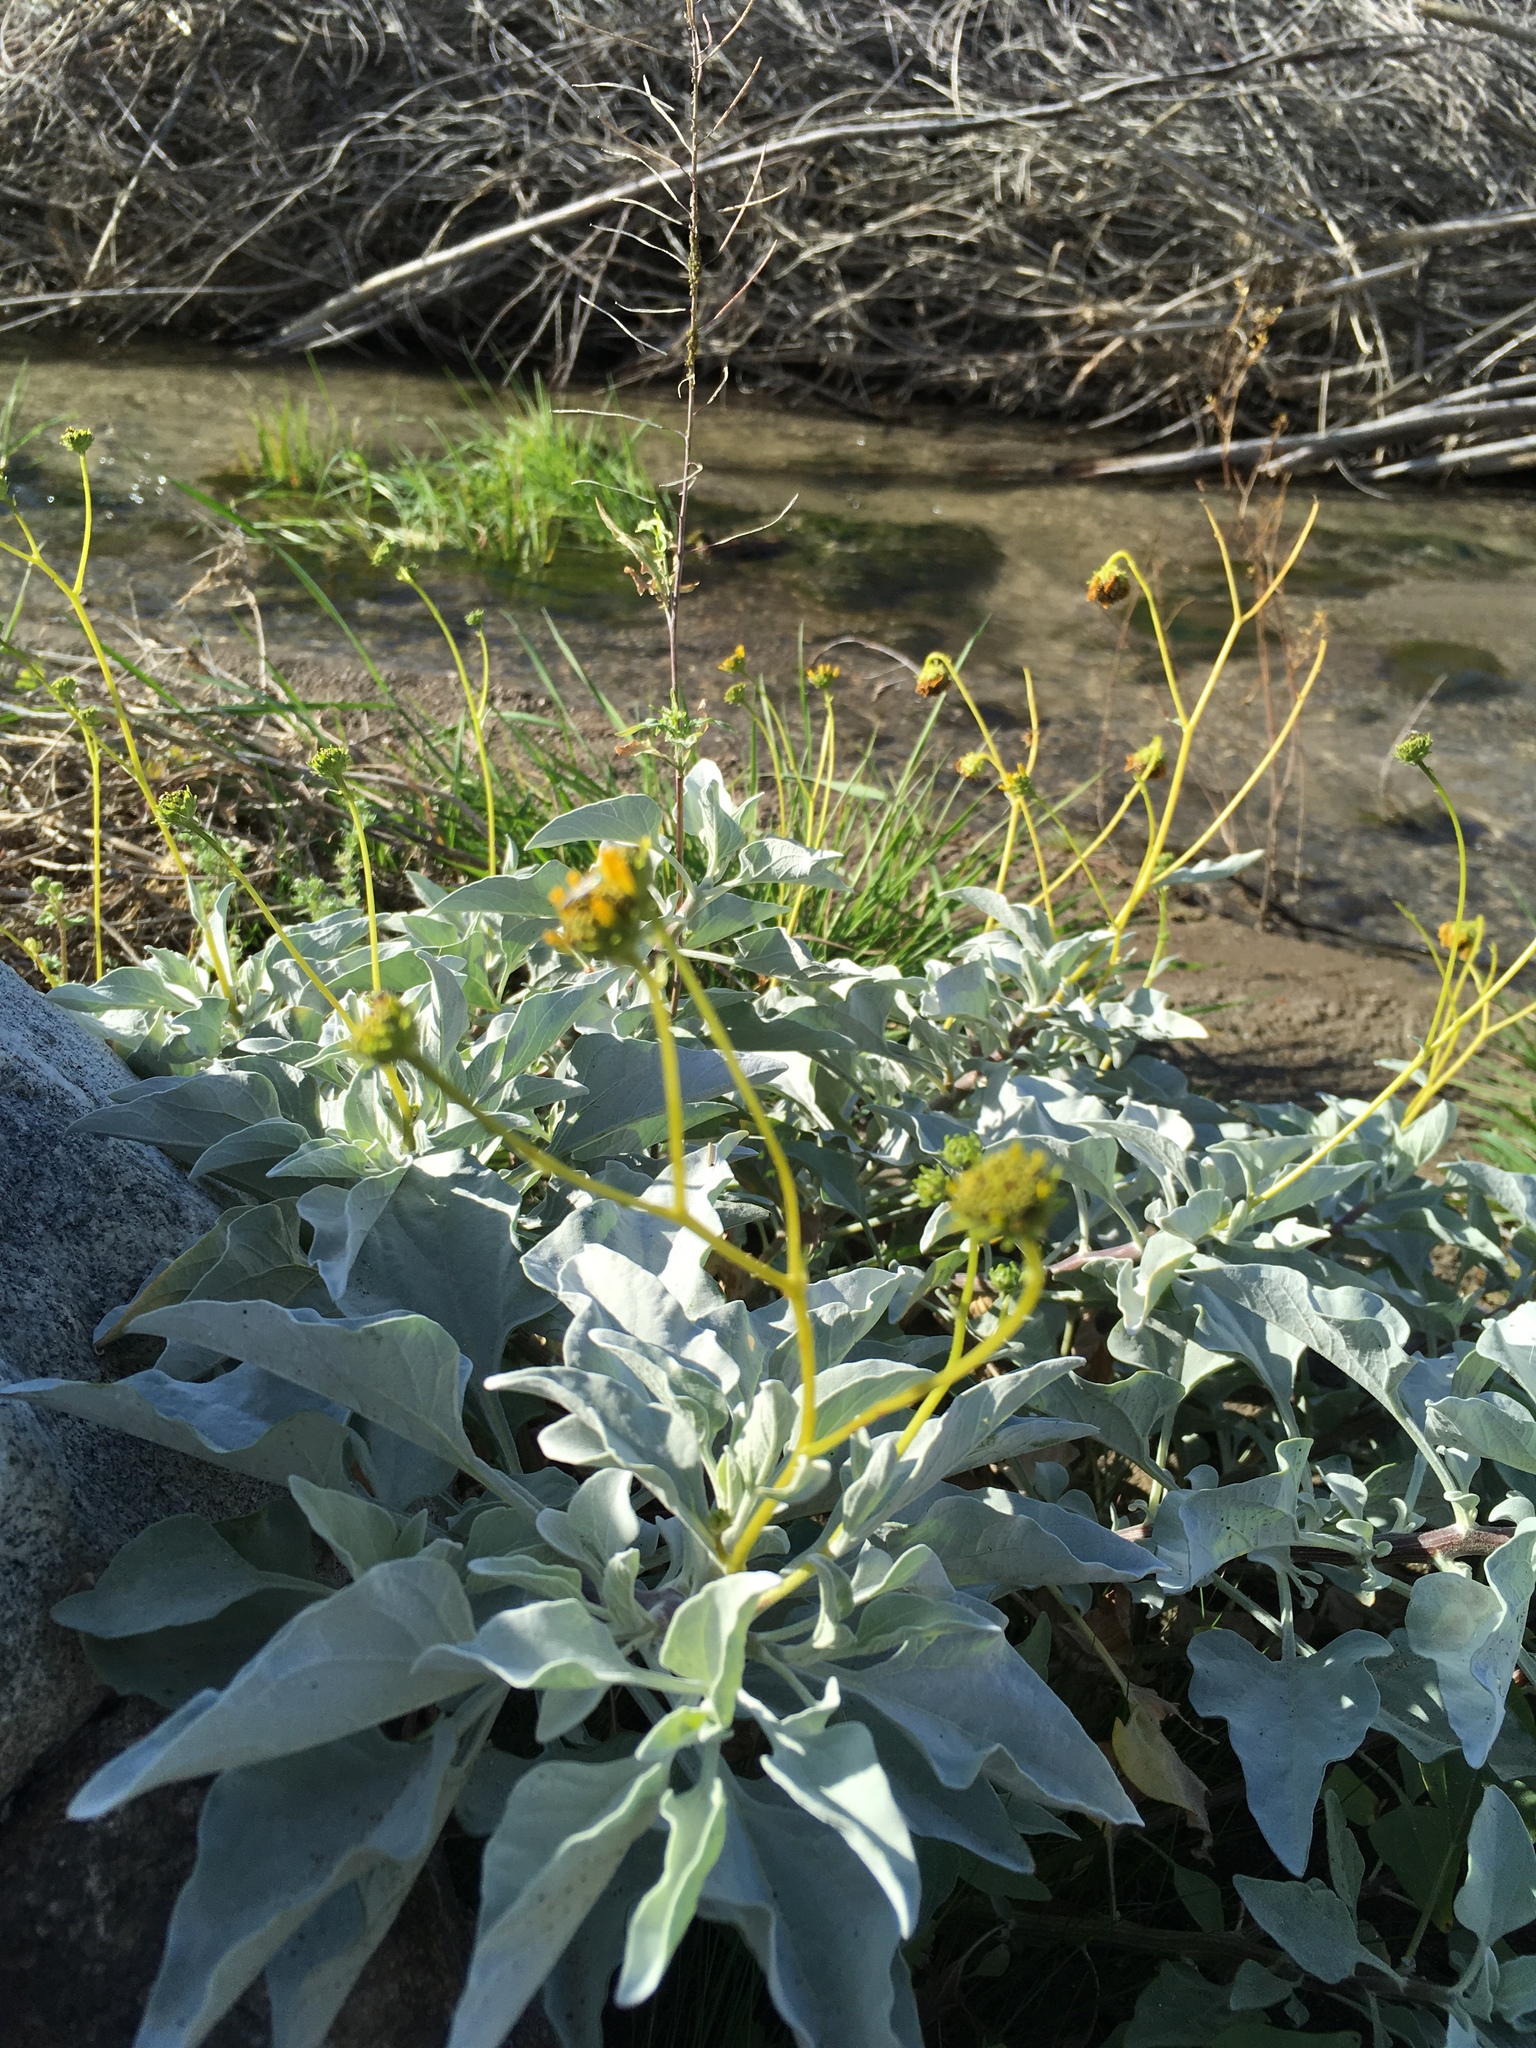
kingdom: Plantae
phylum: Tracheophyta
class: Magnoliopsida
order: Asterales
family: Asteraceae
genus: Encelia
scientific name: Encelia farinosa
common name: Brittlebush
